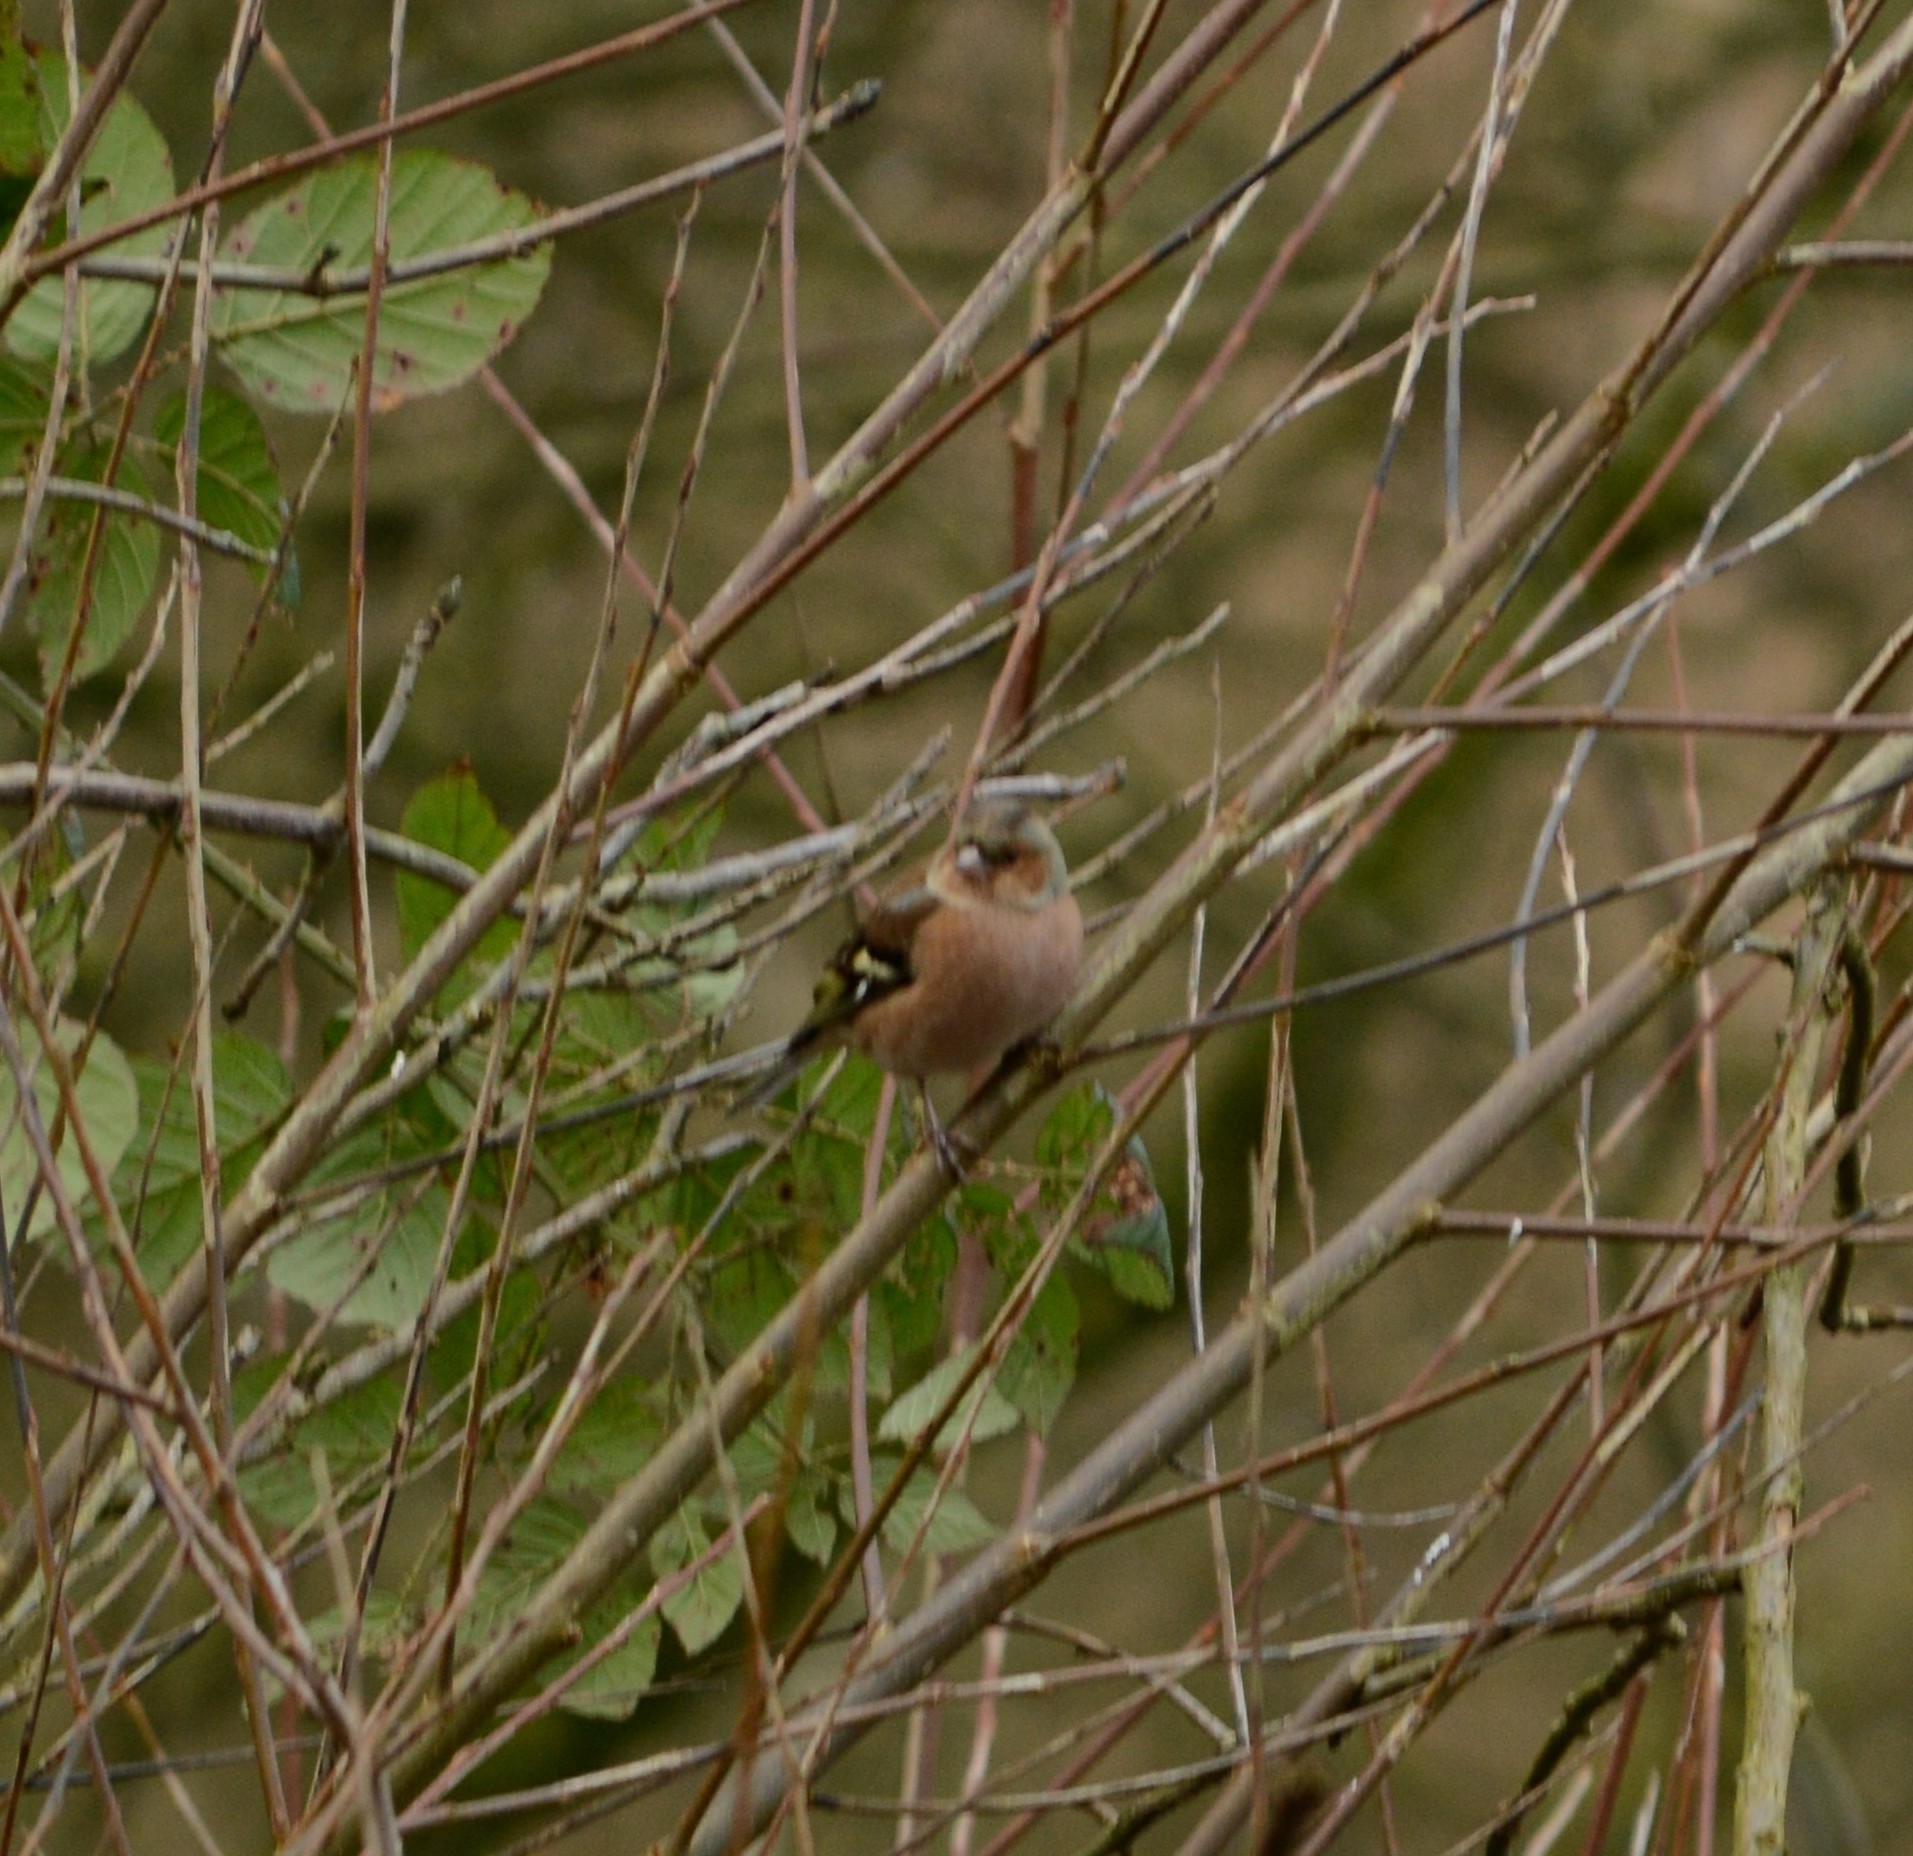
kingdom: Animalia
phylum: Chordata
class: Aves
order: Passeriformes
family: Fringillidae
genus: Fringilla
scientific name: Fringilla coelebs
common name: Common chaffinch
